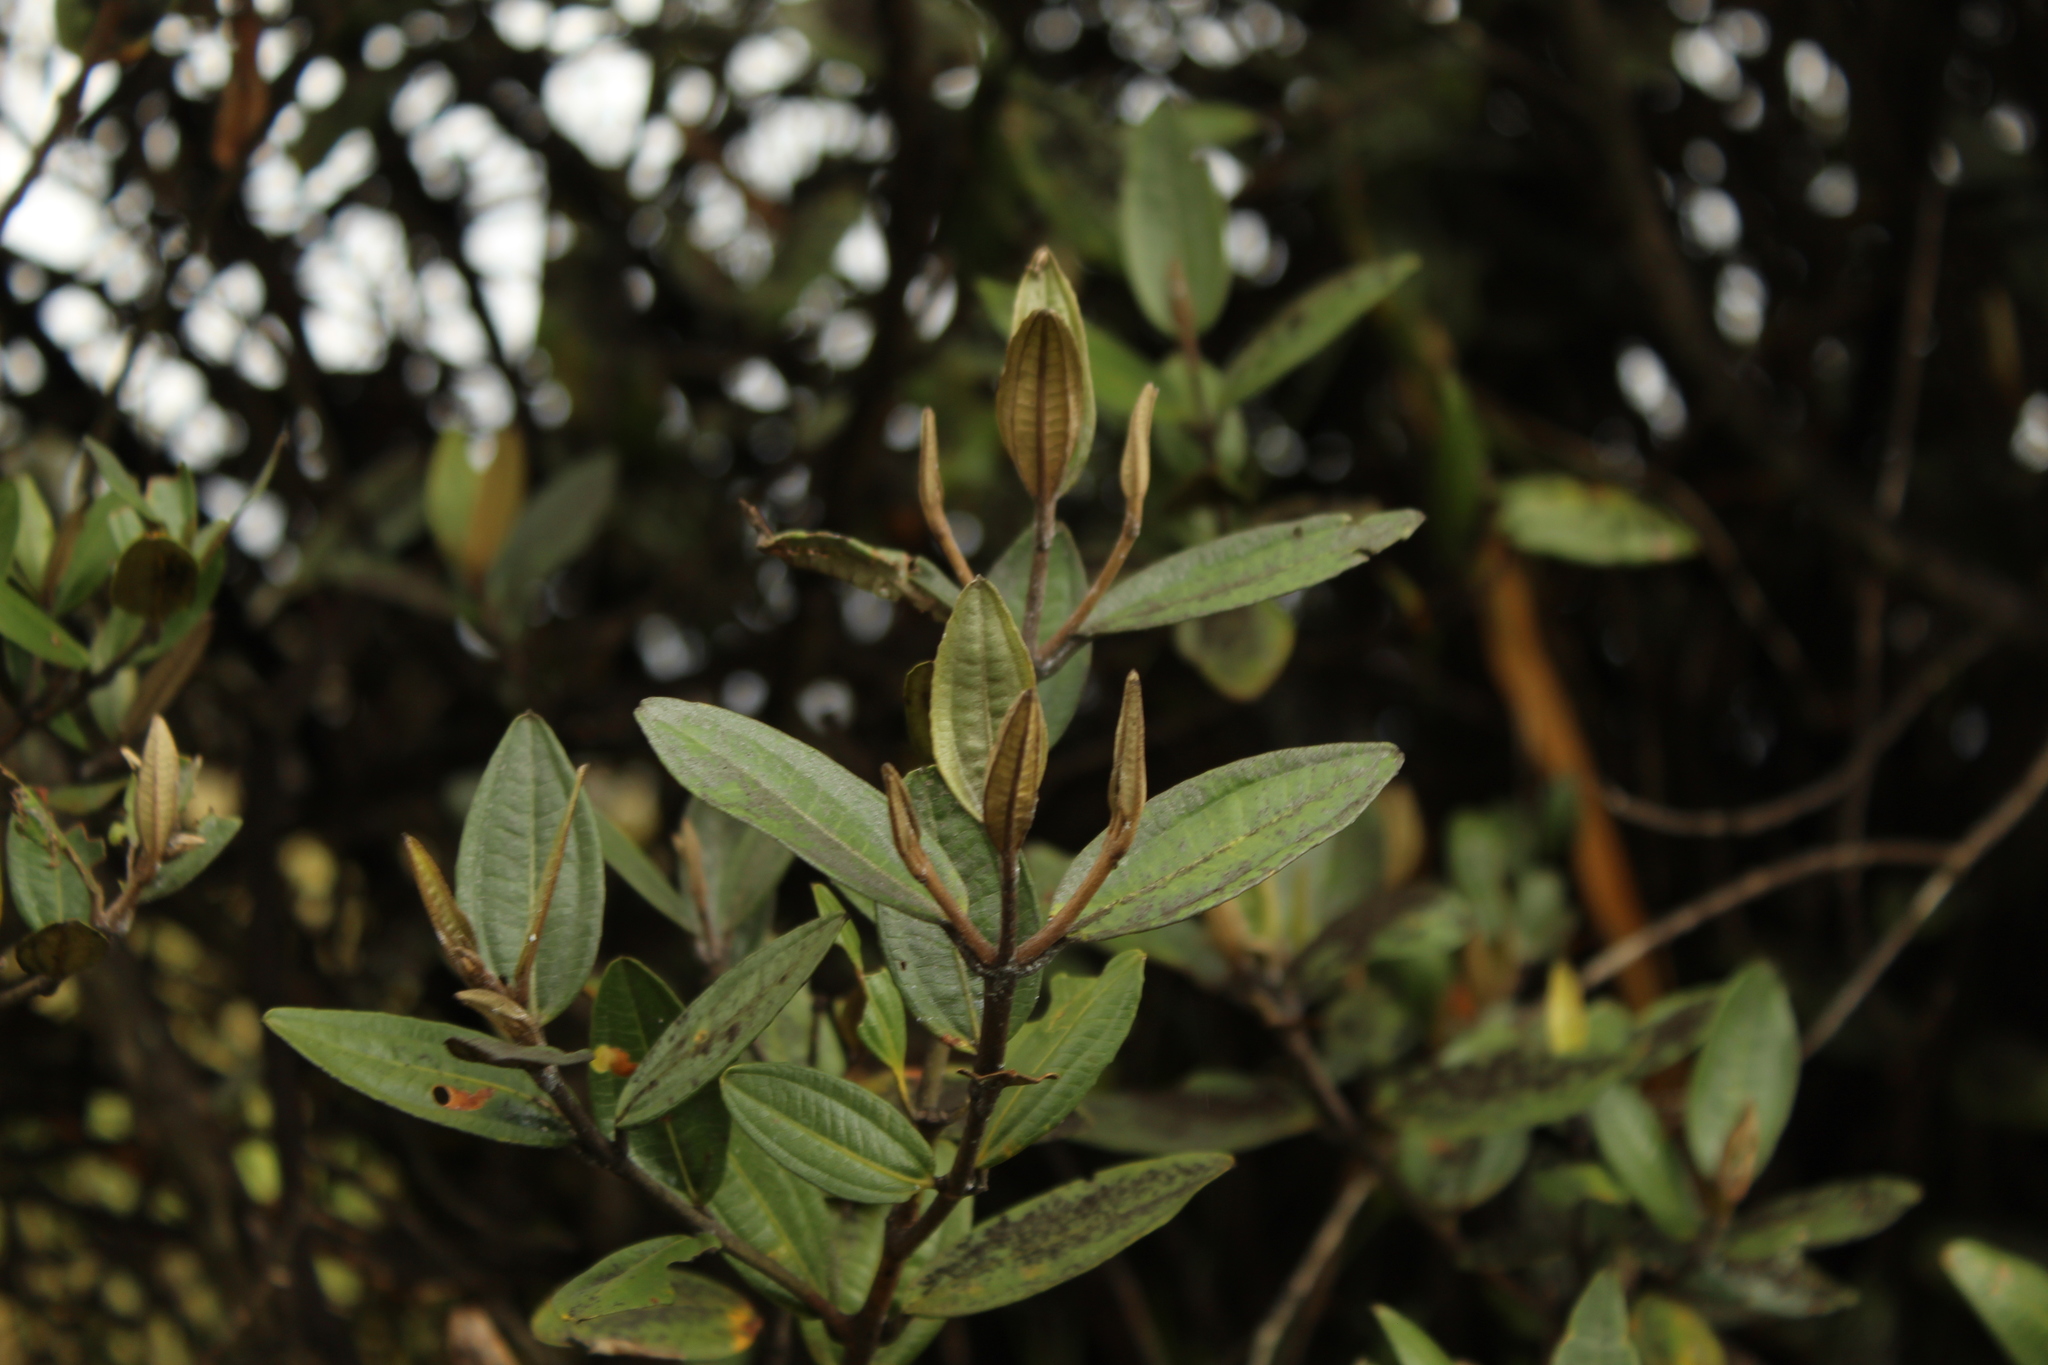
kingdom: Plantae
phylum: Tracheophyta
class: Magnoliopsida
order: Myrtales
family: Melastomataceae
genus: Miconia
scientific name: Miconia squamulosa
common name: Squamulose maya
